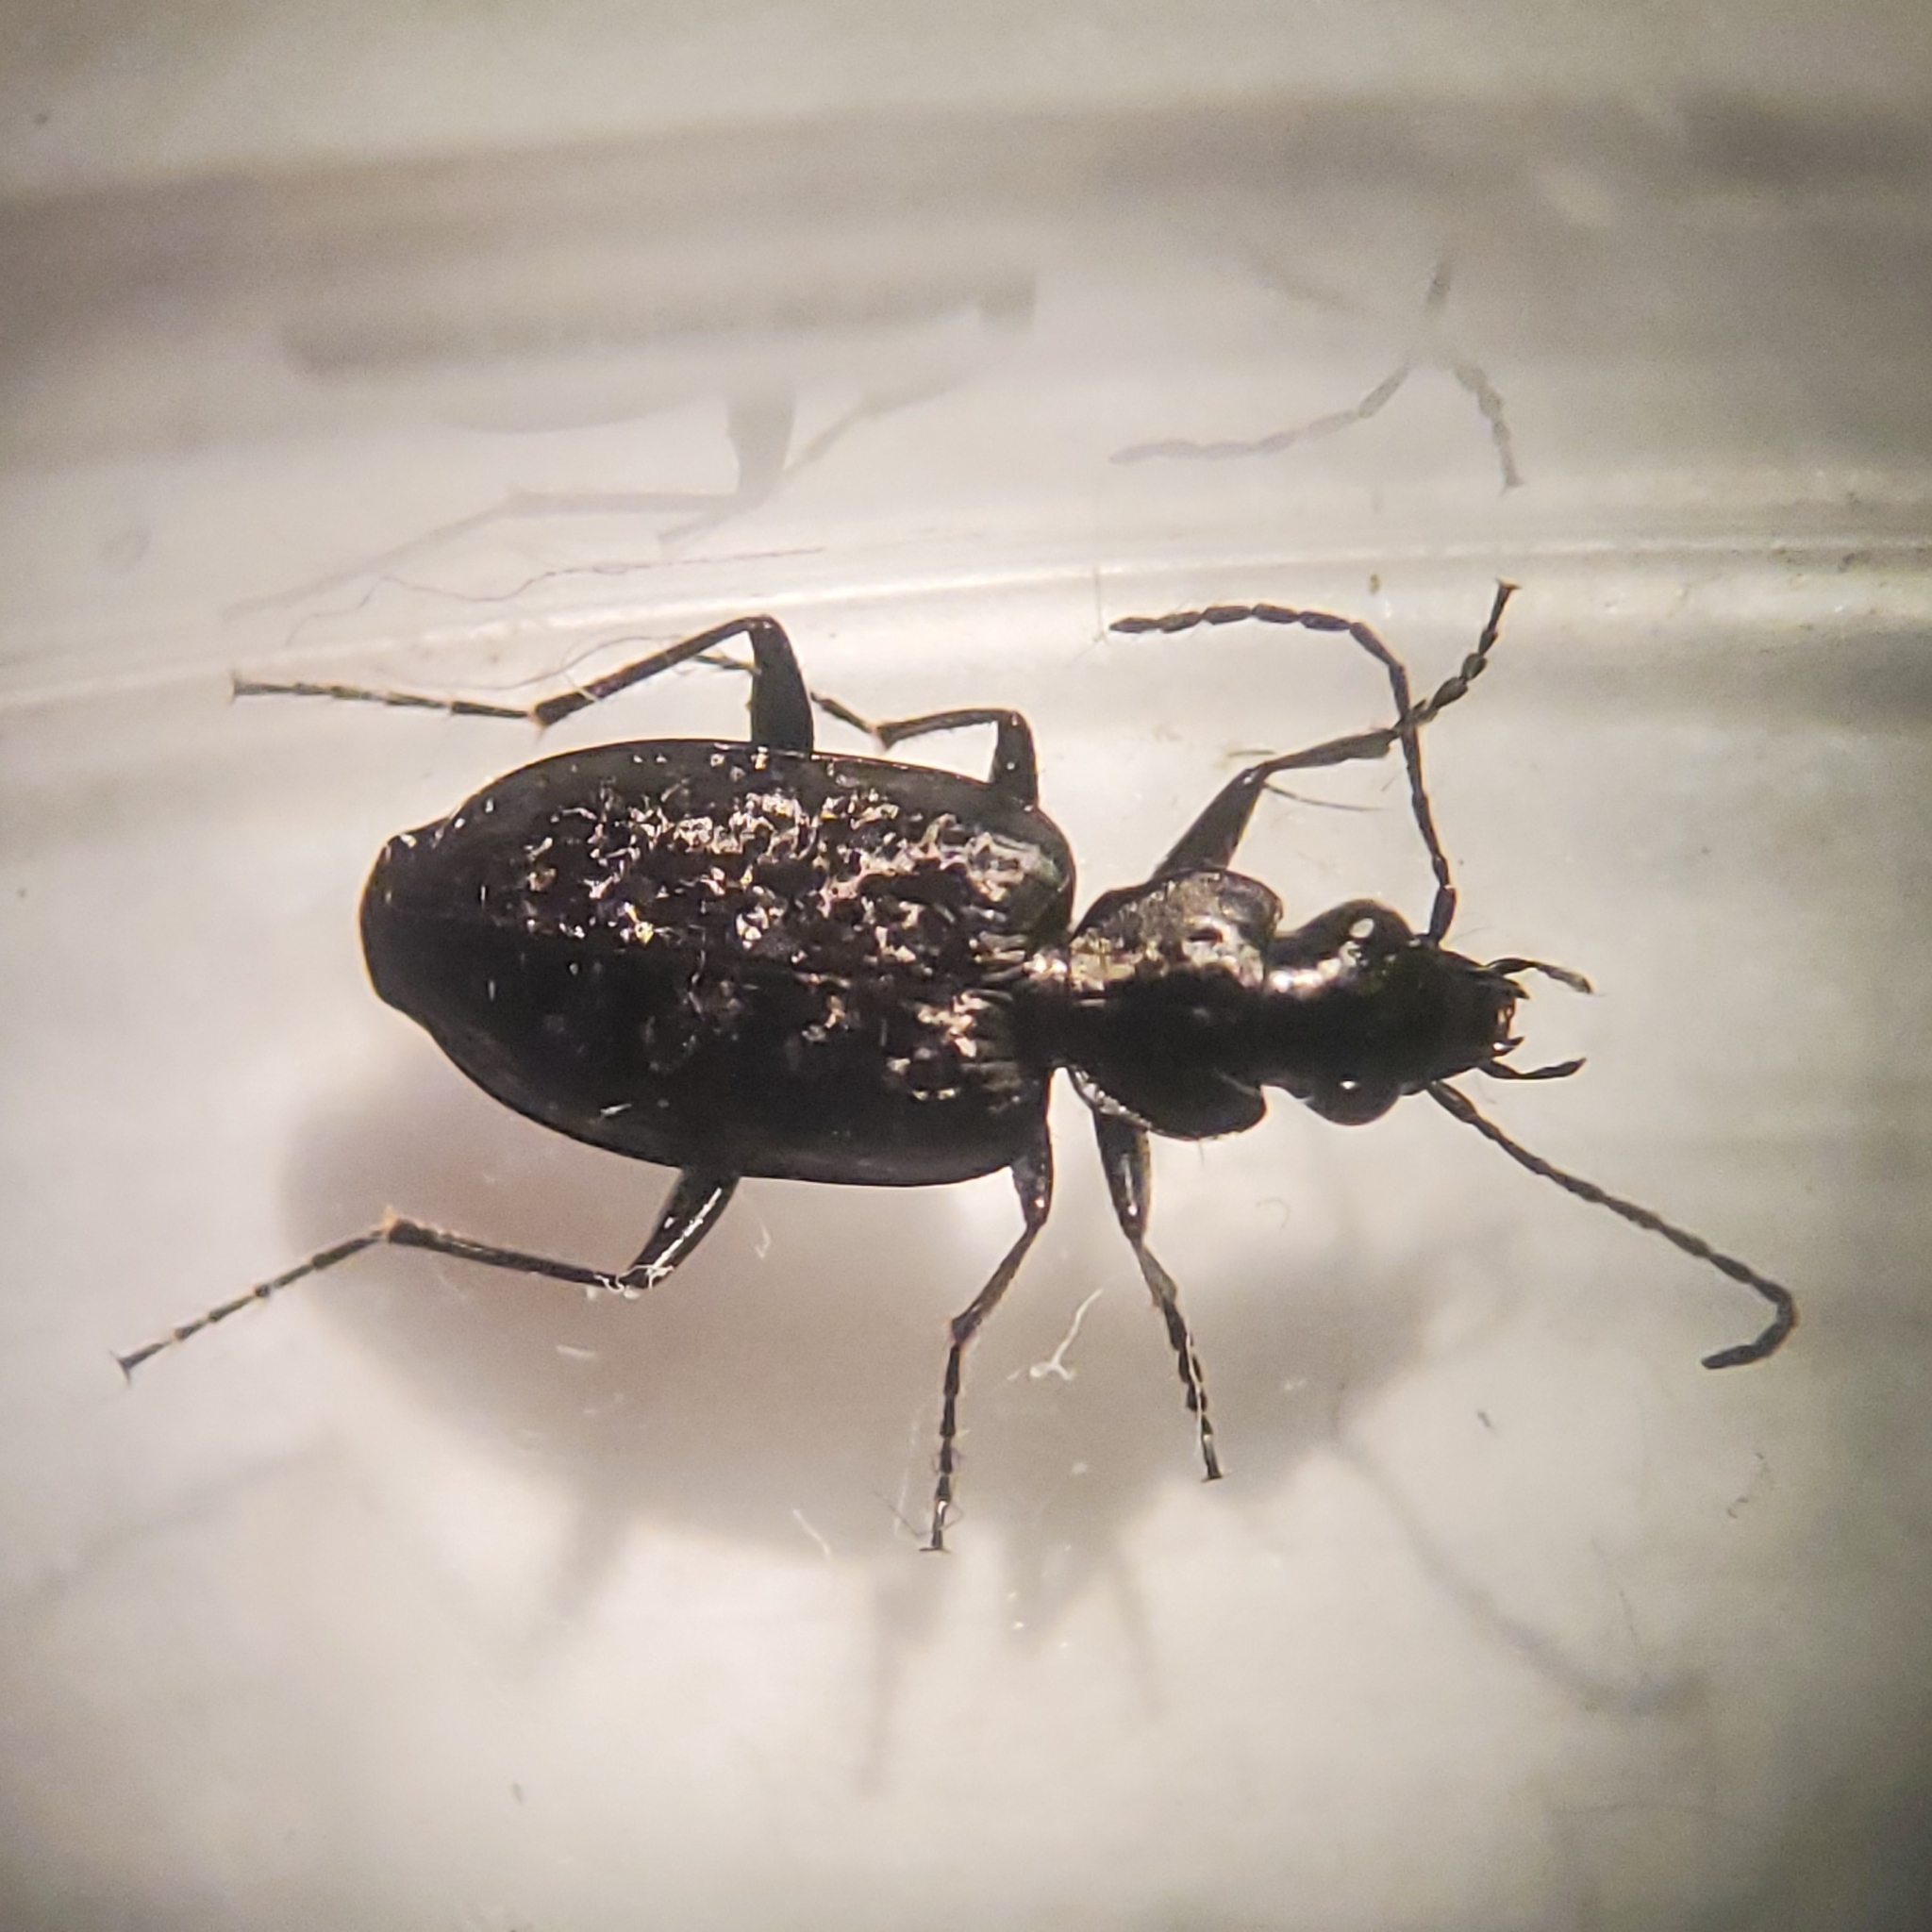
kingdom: Animalia
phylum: Arthropoda
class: Insecta
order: Coleoptera
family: Carabidae
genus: Sericoda
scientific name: Sericoda quadripunctata
